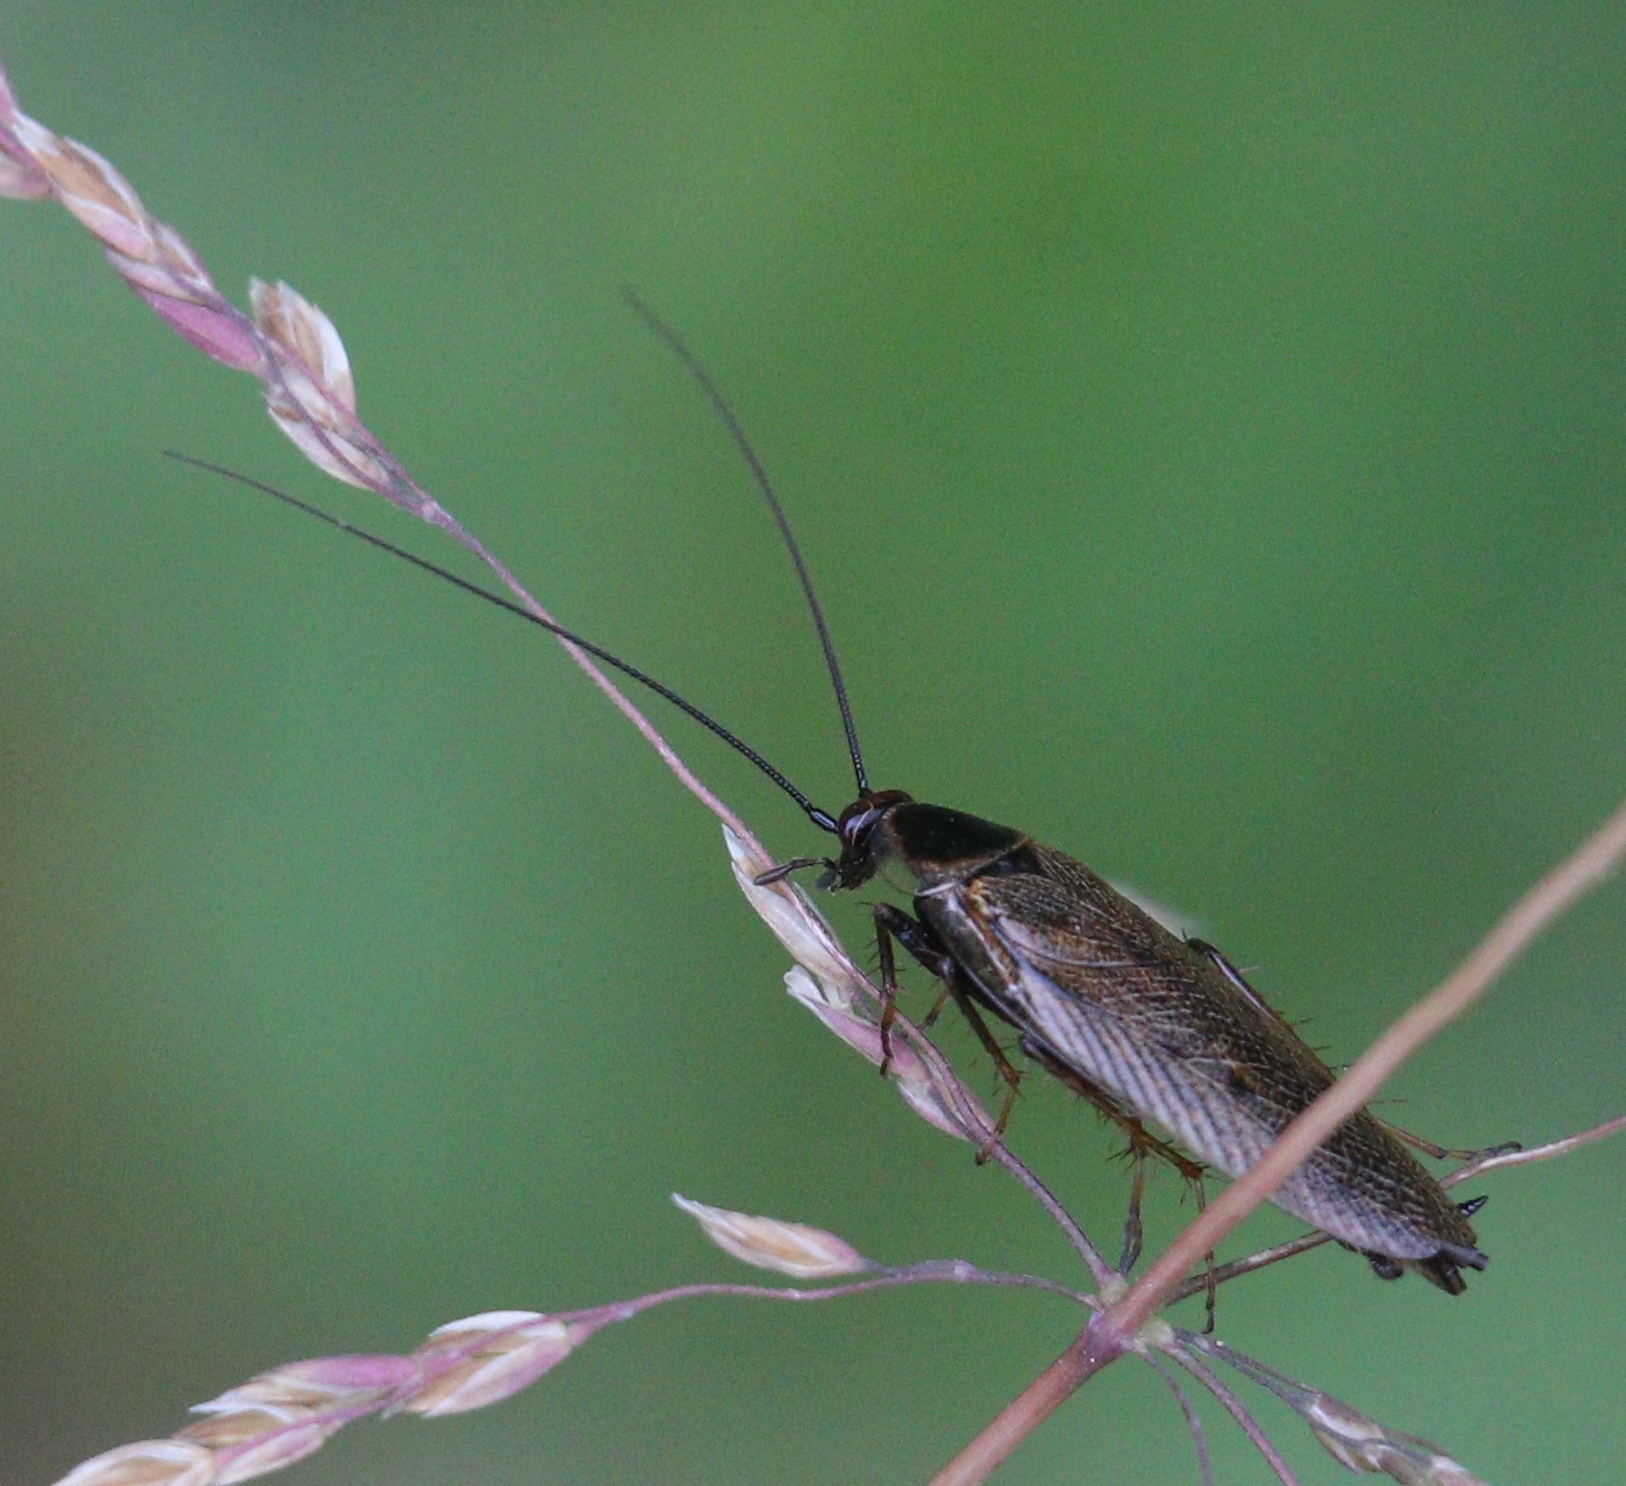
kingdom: Animalia
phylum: Arthropoda
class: Insecta
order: Blattodea
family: Ectobiidae
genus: Ectobius
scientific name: Ectobius lapponicus
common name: Dusky cockroach
